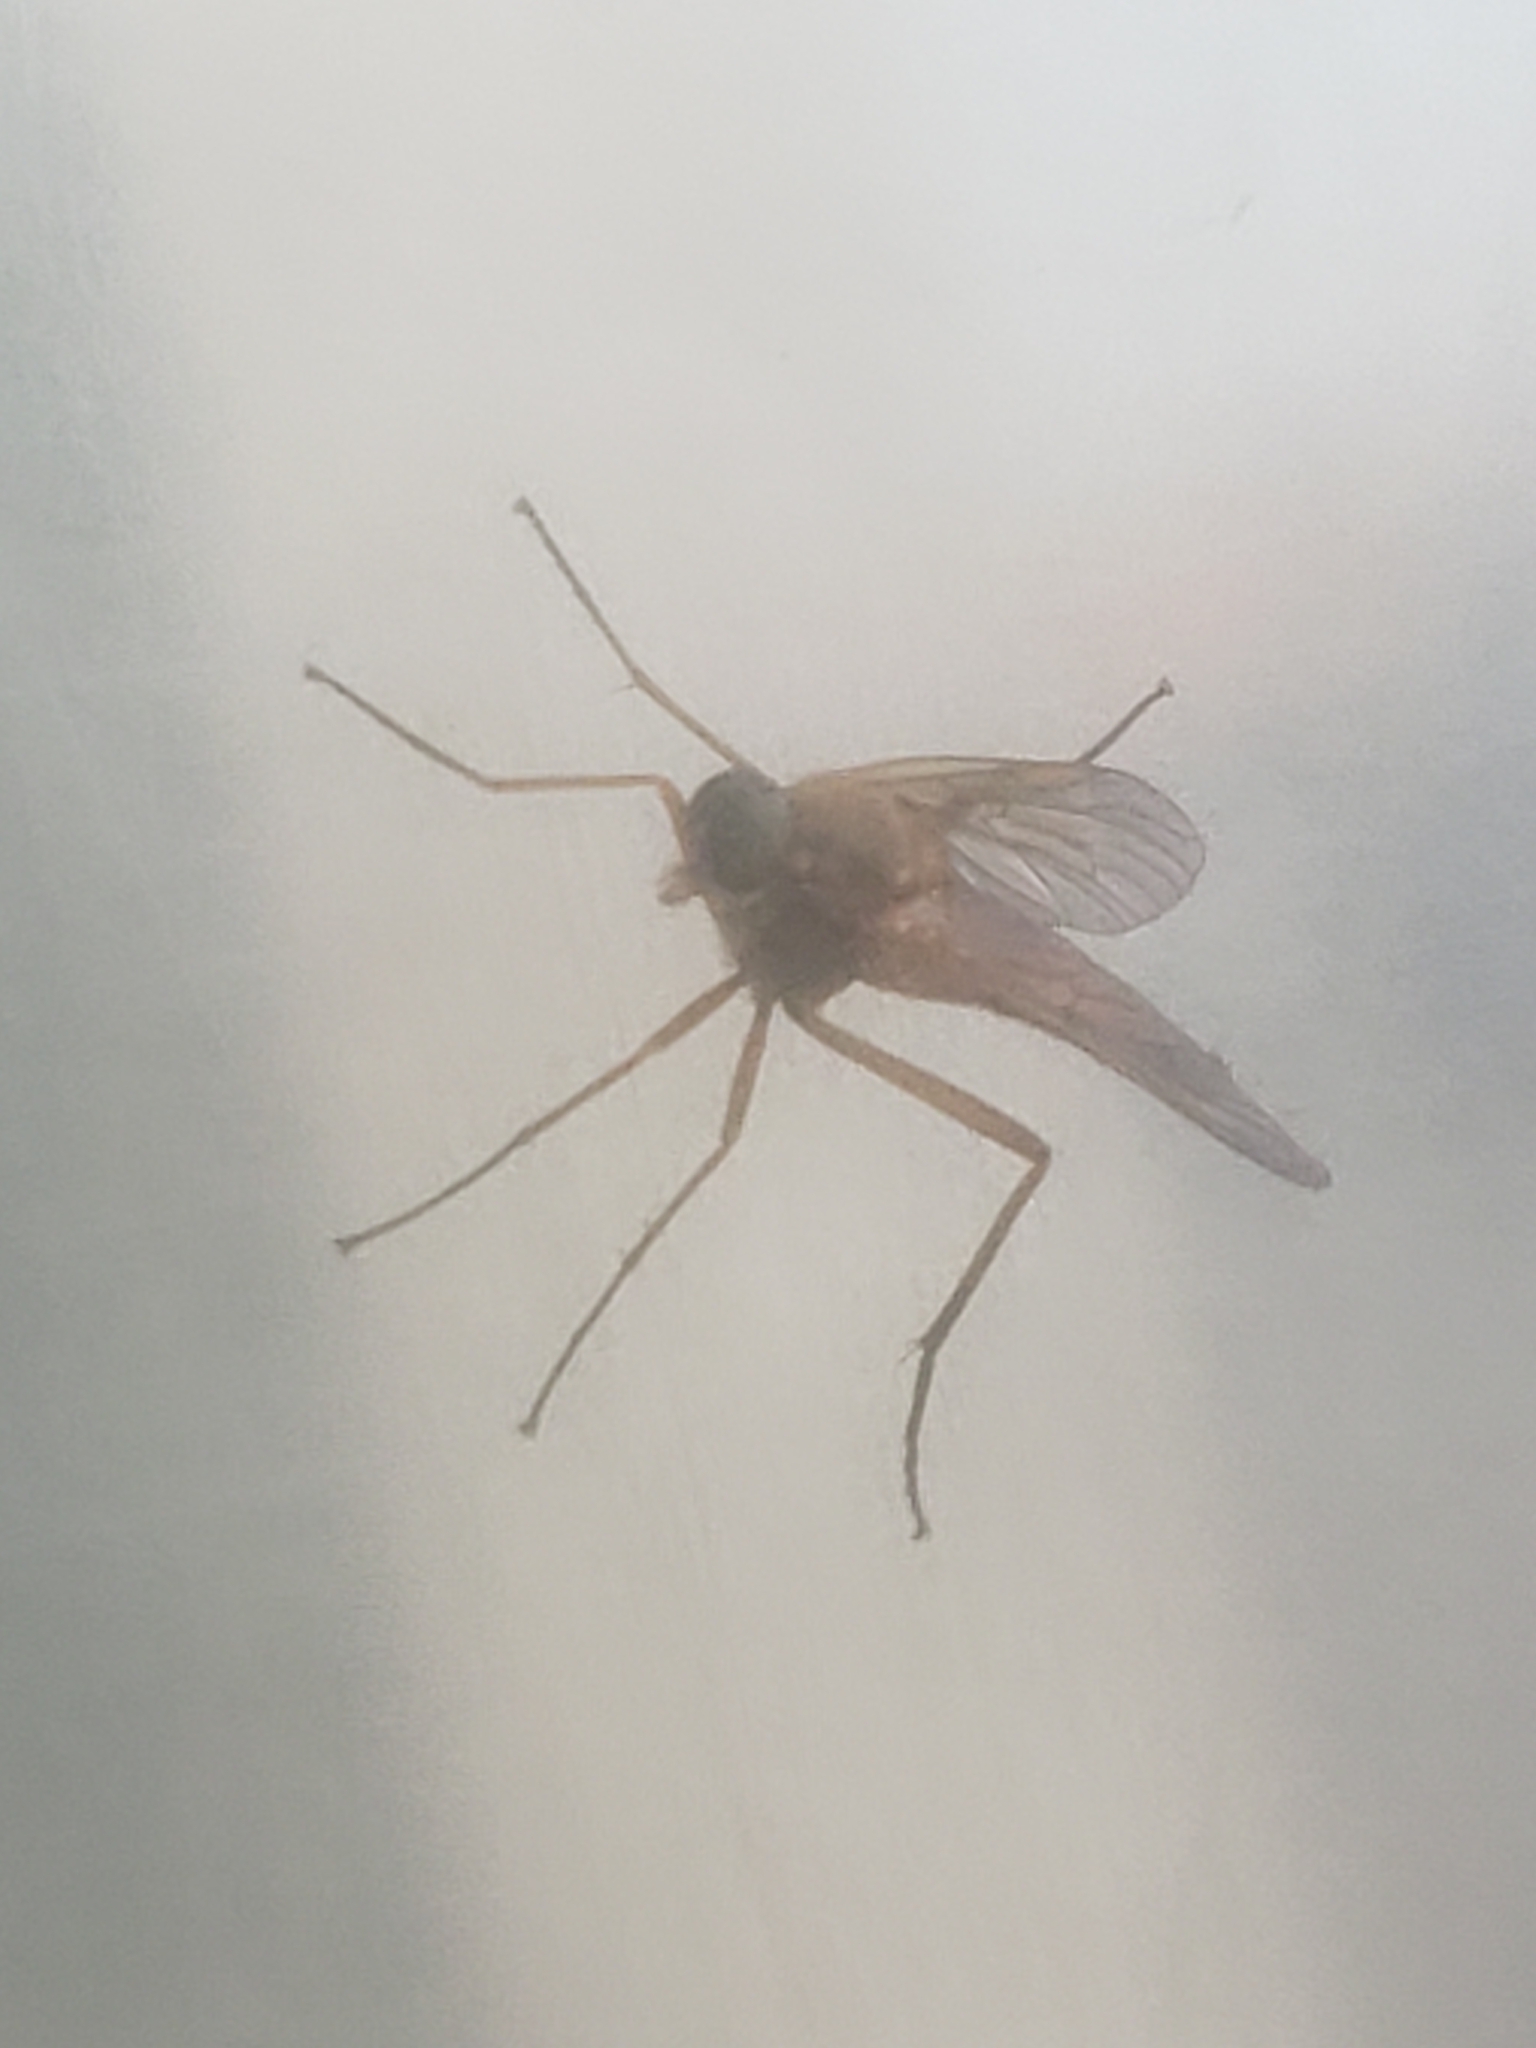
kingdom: Animalia
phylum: Arthropoda
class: Insecta
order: Diptera
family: Rhagionidae
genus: Rhagio
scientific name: Rhagio tringaria
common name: Marsh snipefly
